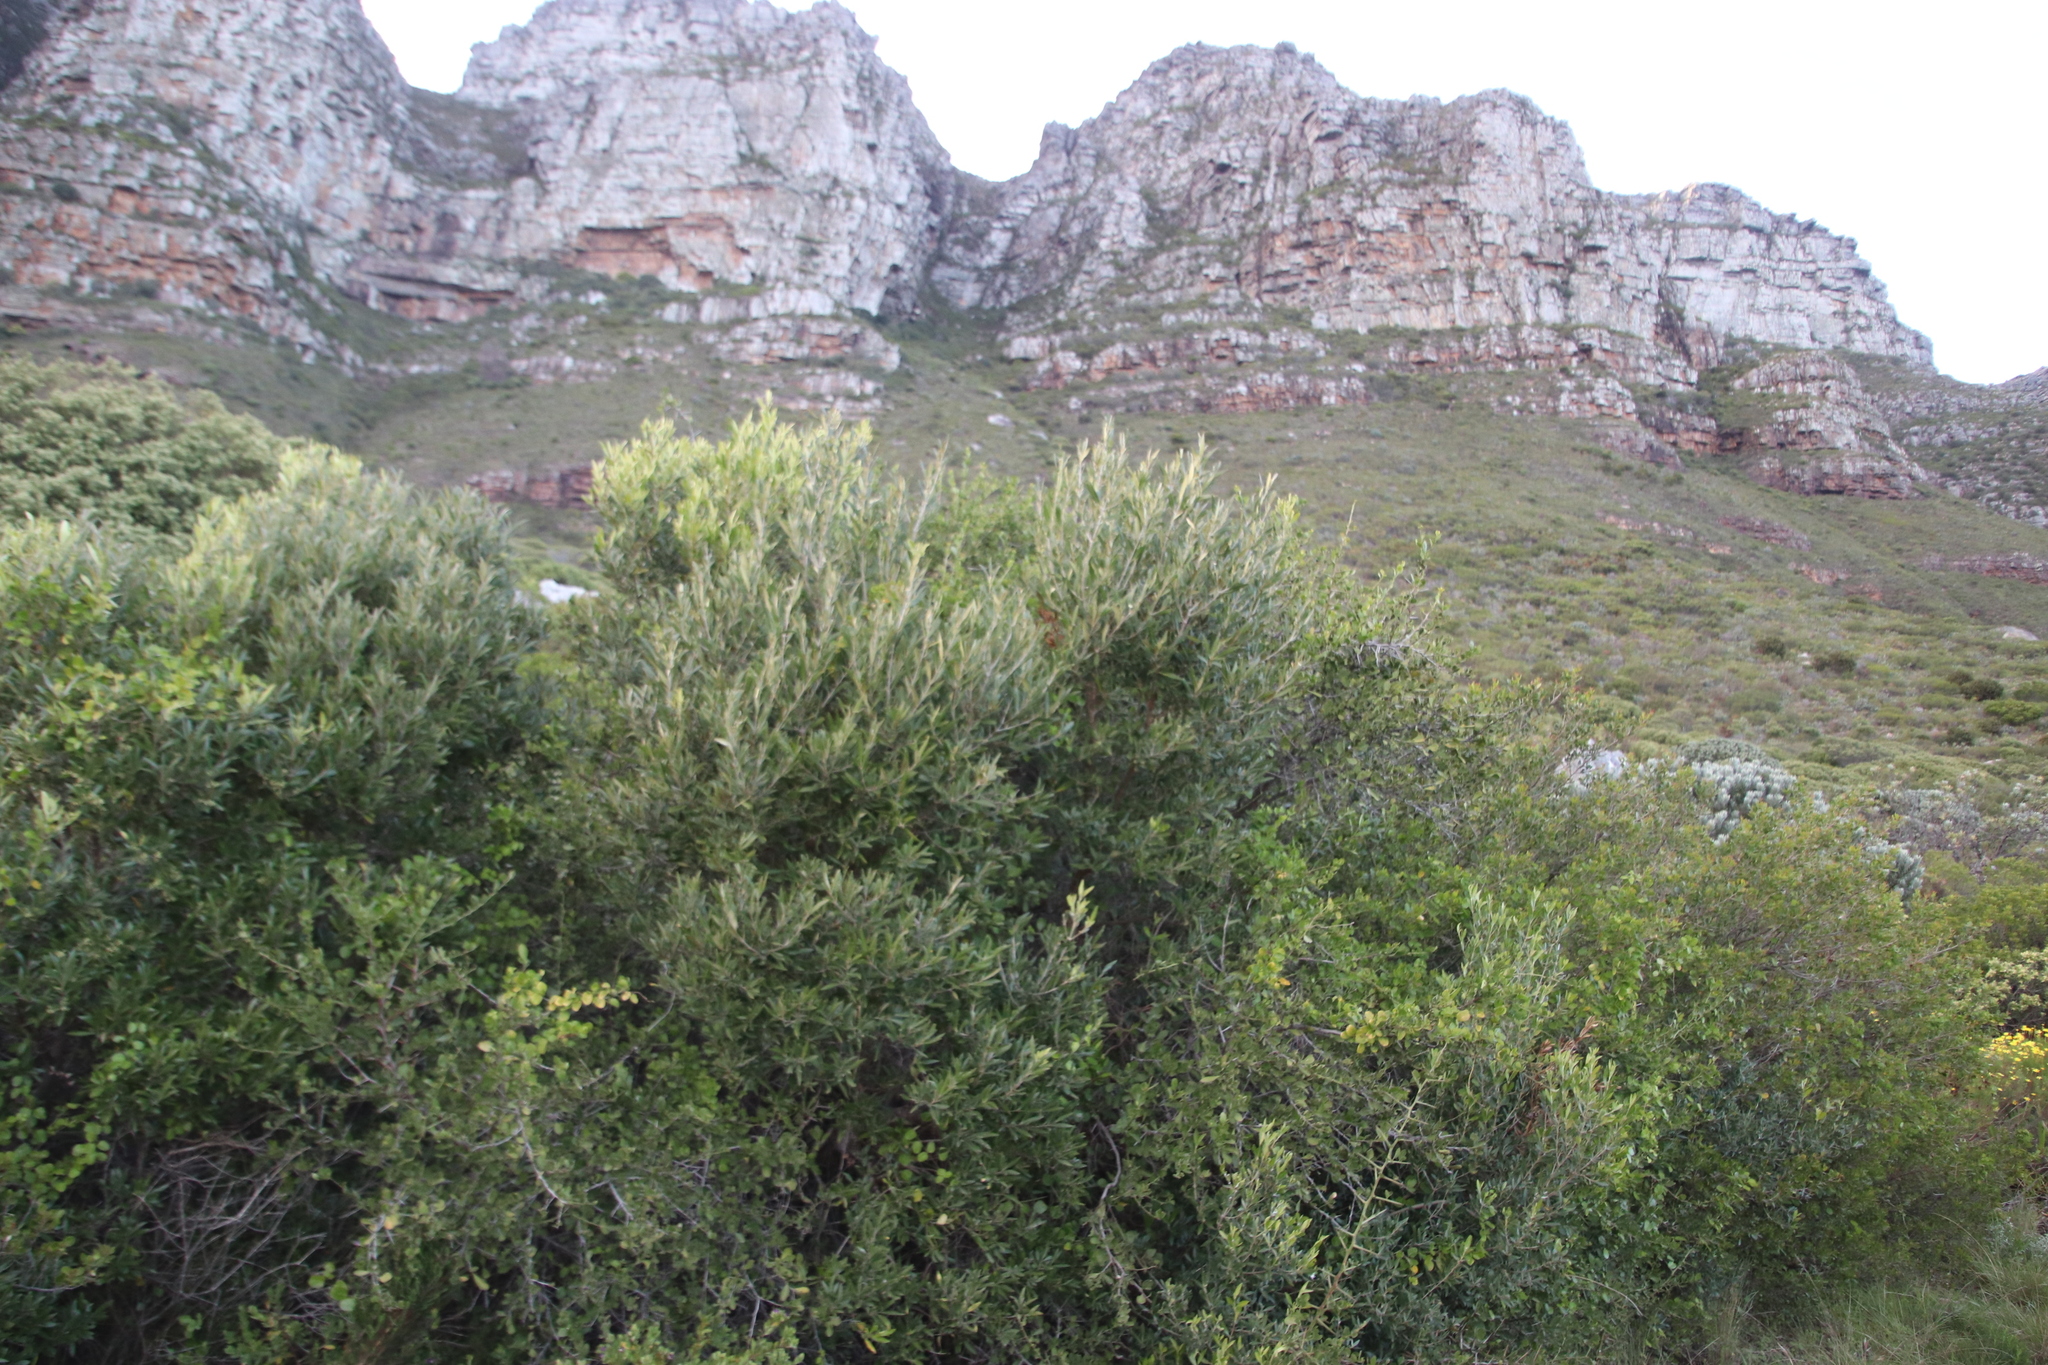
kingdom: Plantae
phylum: Tracheophyta
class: Magnoliopsida
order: Lamiales
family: Oleaceae
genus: Olea
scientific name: Olea europaea
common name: Olive
